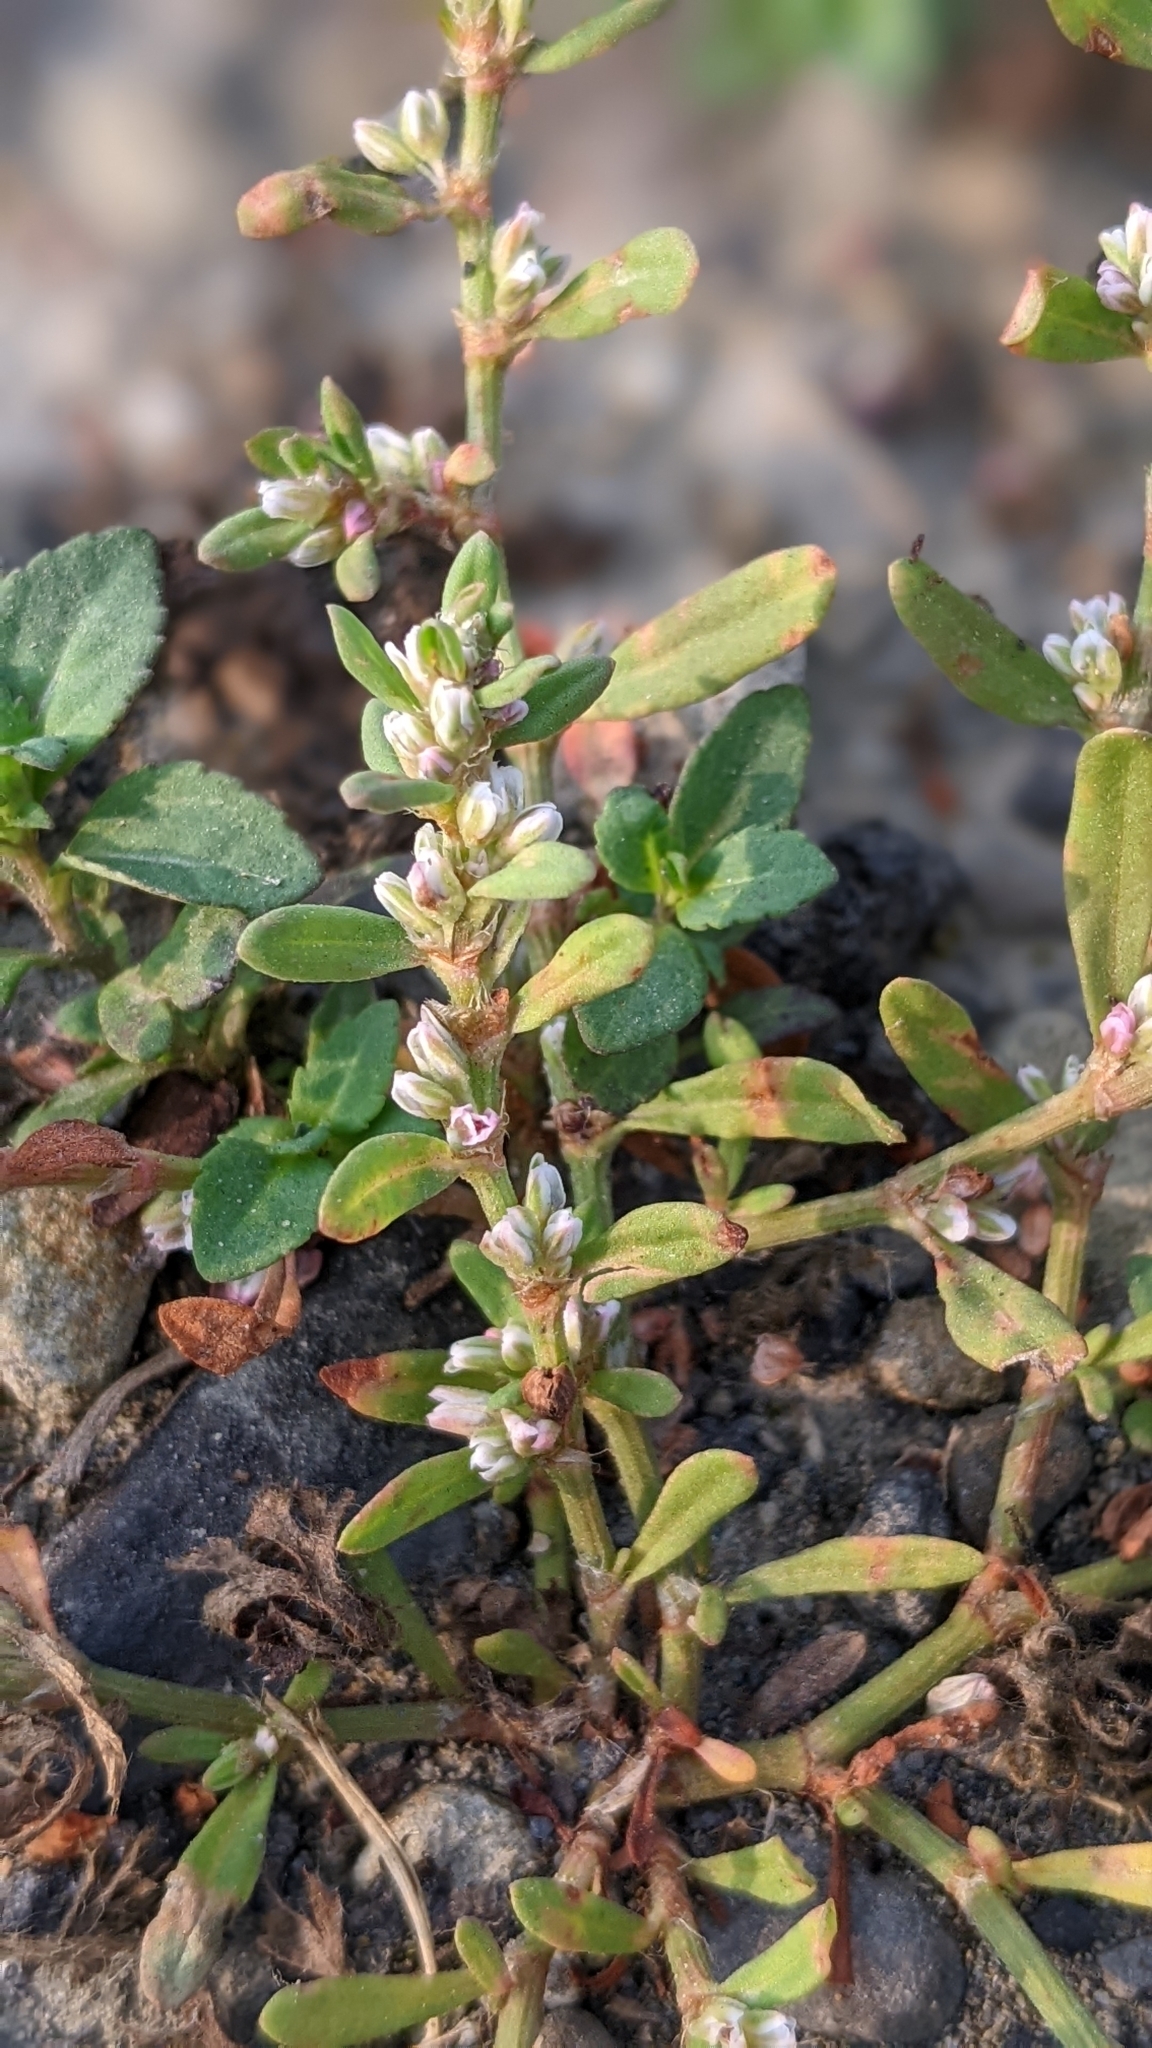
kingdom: Plantae
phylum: Tracheophyta
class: Magnoliopsida
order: Caryophyllales
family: Polygonaceae
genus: Polygonum
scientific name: Polygonum plebeium
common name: Common knotweed
